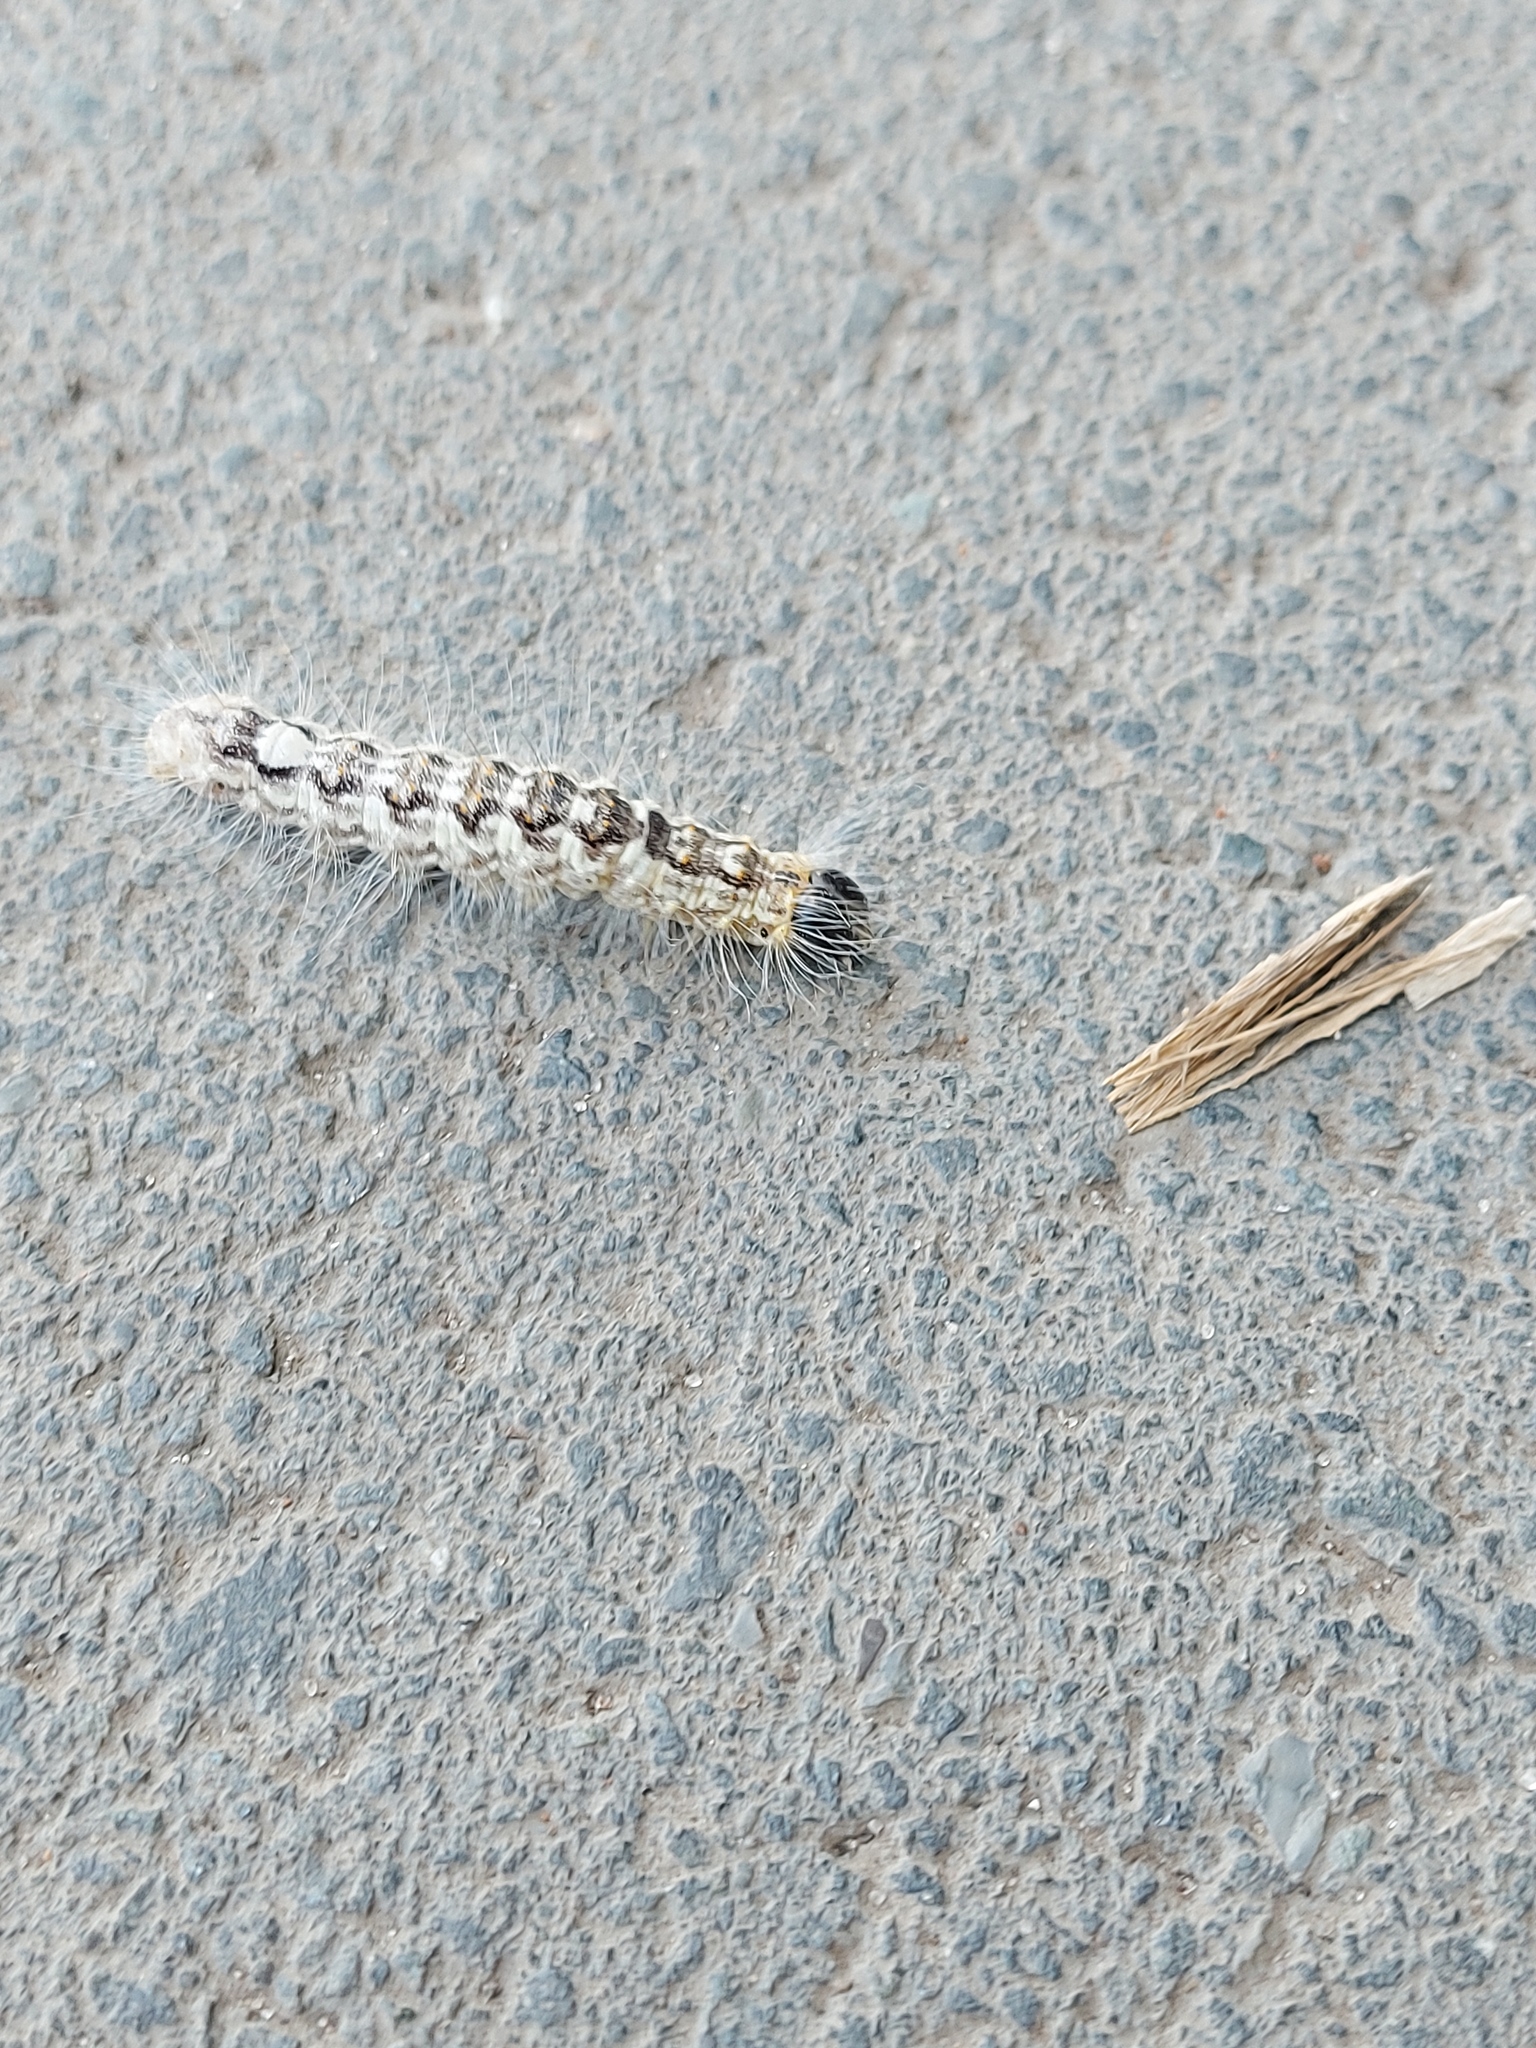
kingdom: Animalia
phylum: Arthropoda
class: Insecta
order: Lepidoptera
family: Noctuidae
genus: Acronicta
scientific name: Acronicta megacephala
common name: Poplar grey
